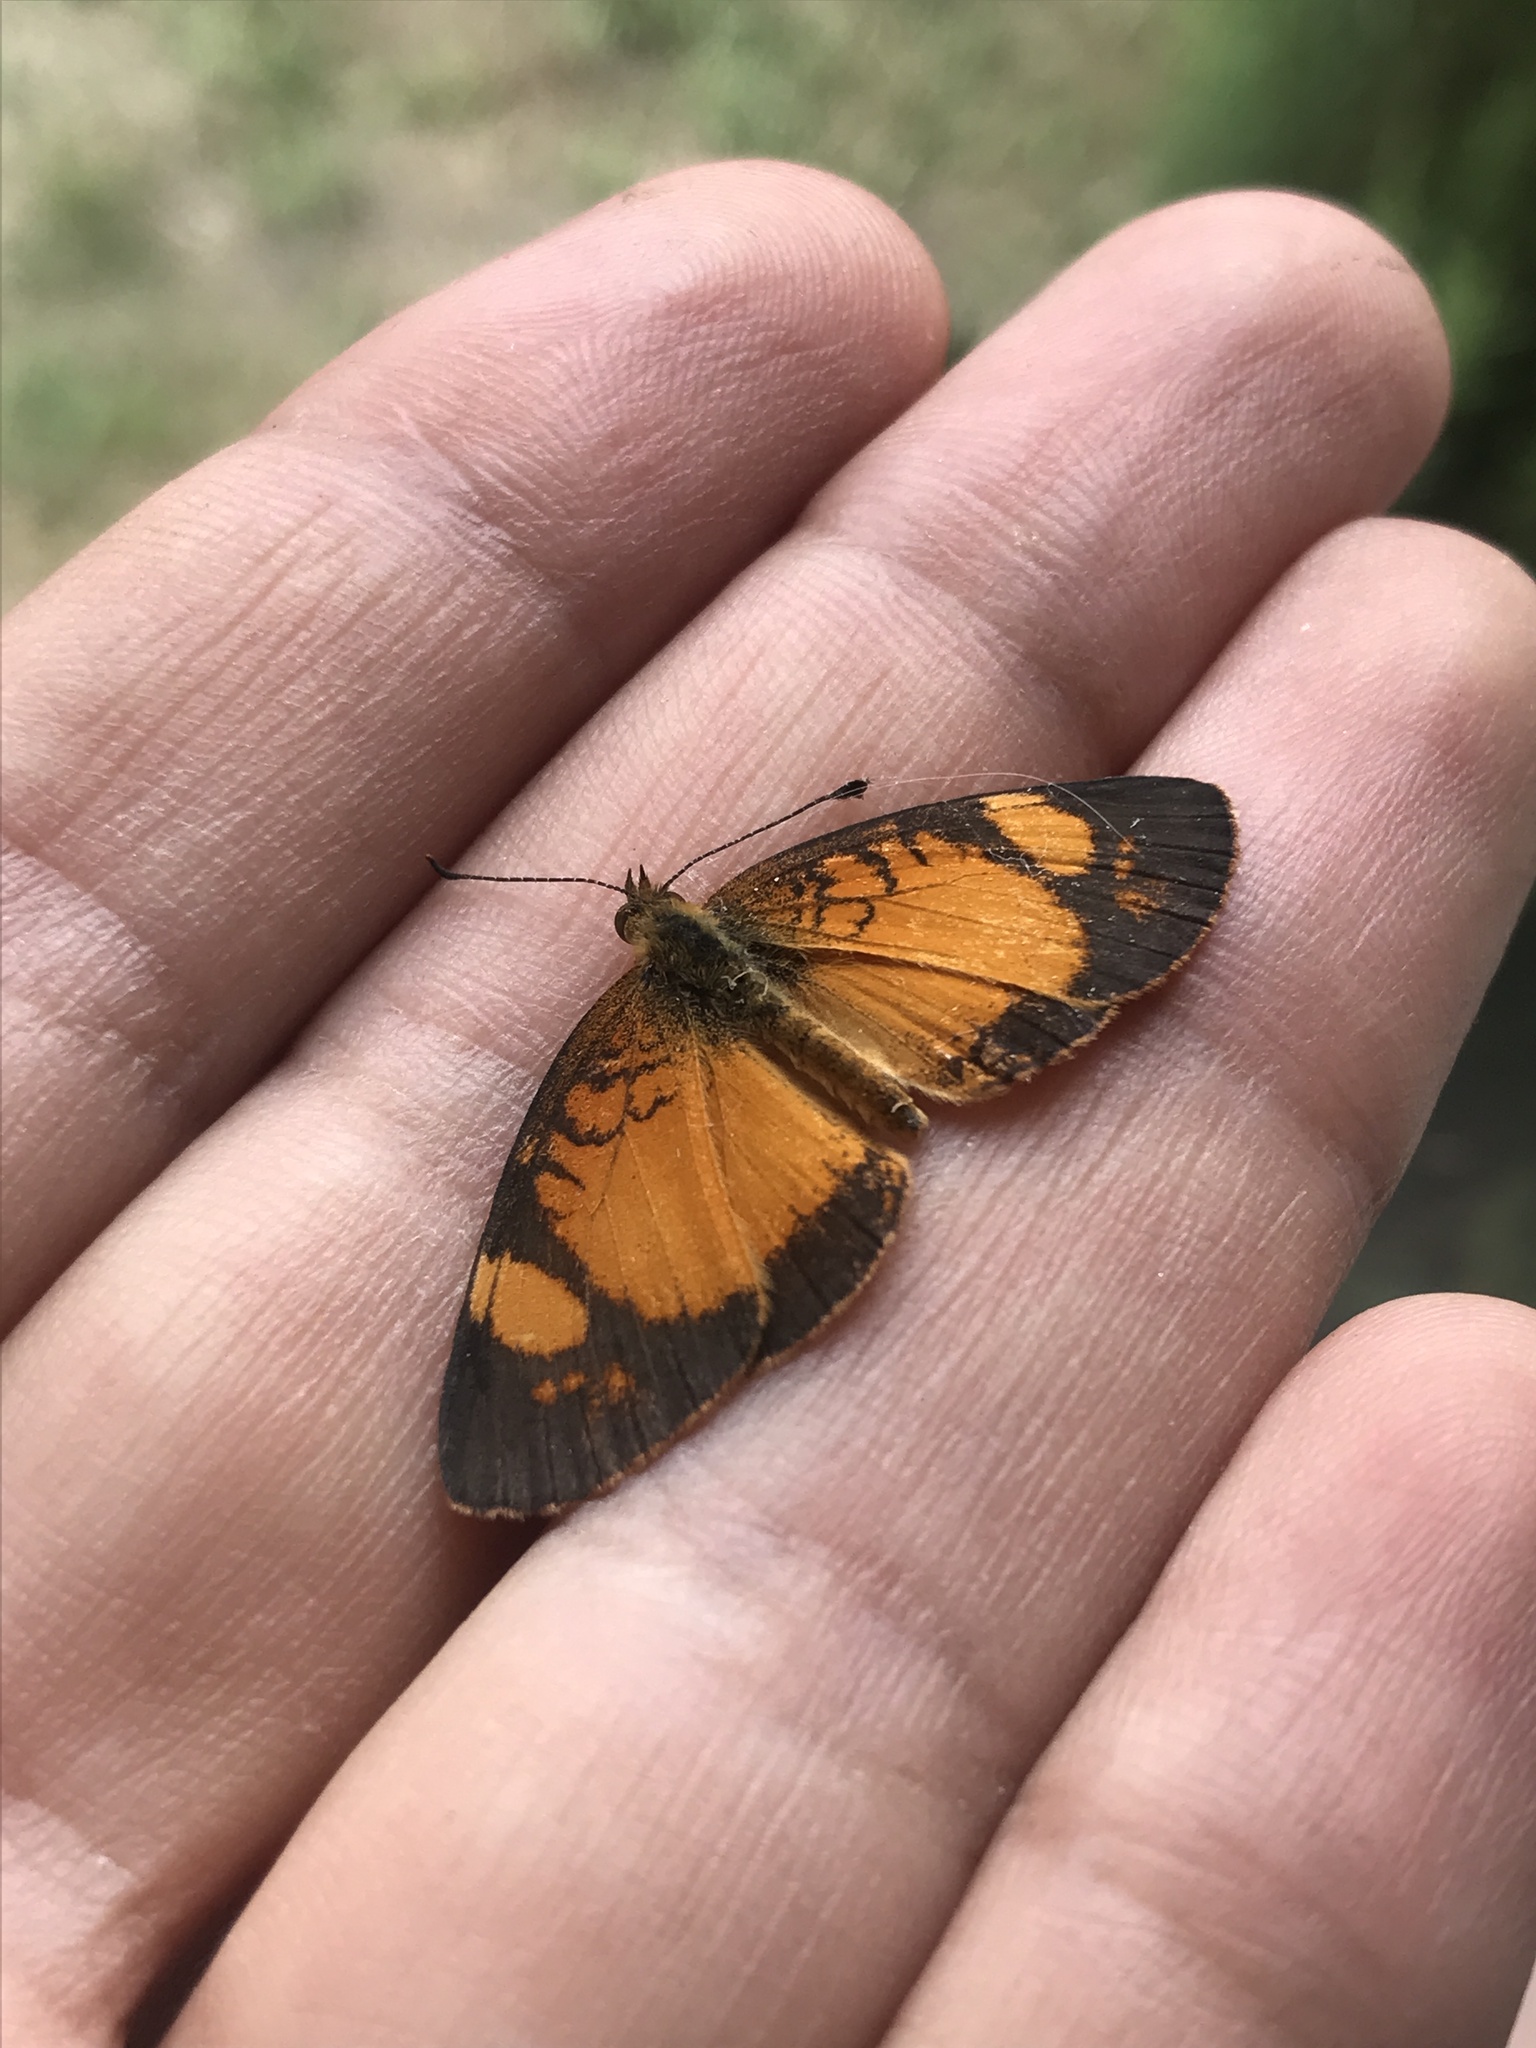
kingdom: Animalia
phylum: Arthropoda
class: Insecta
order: Lepidoptera
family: Nymphalidae
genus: Tegosa
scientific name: Tegosa claudina
